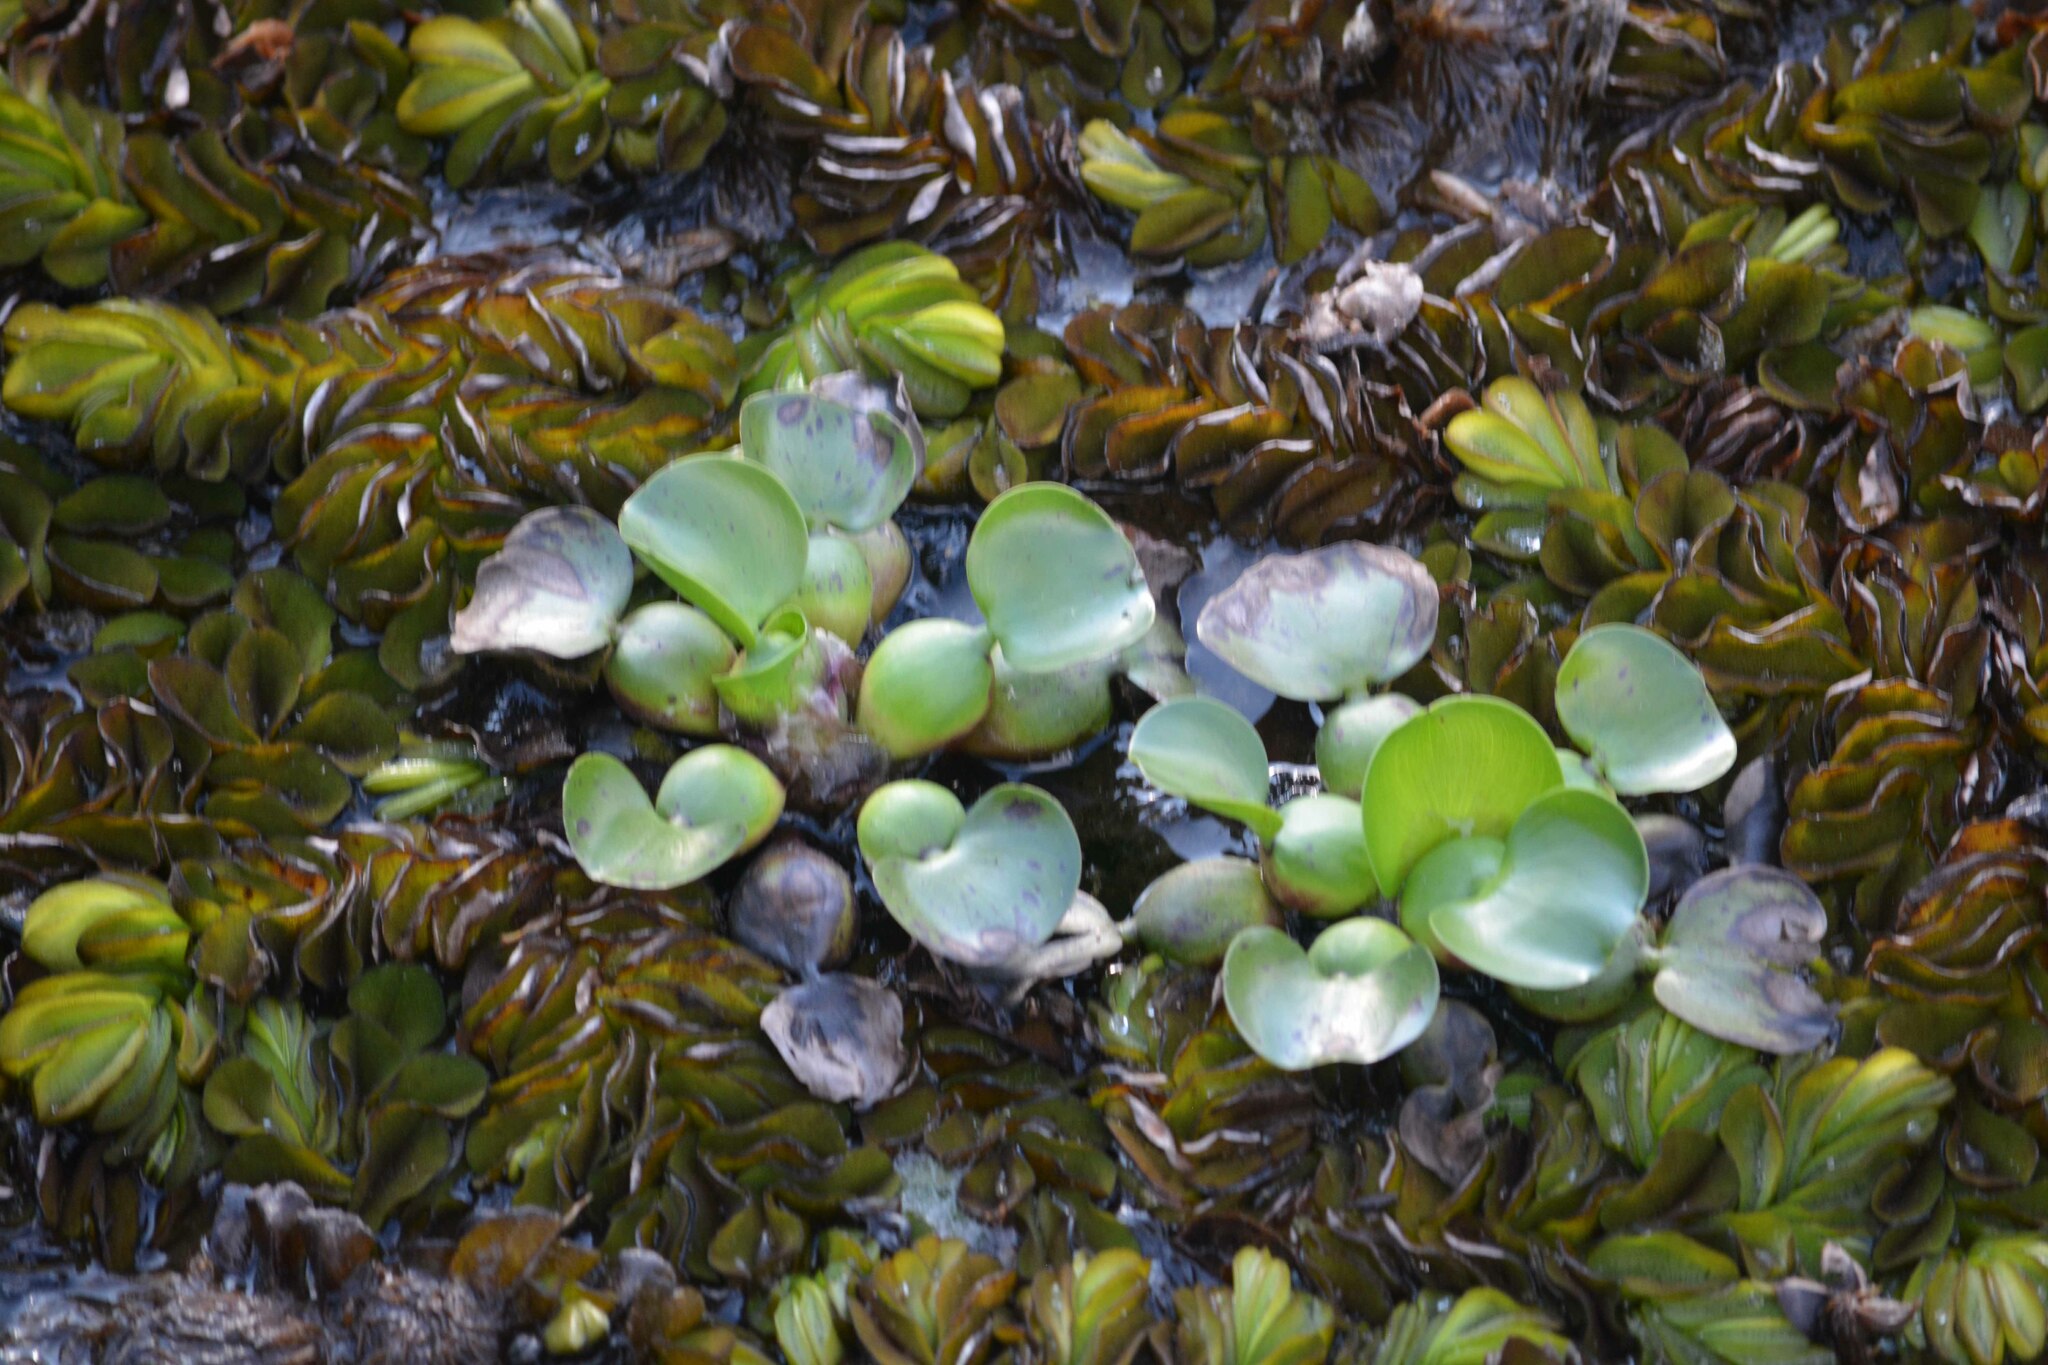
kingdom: Plantae
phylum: Tracheophyta
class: Liliopsida
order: Commelinales
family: Pontederiaceae
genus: Pontederia
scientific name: Pontederia crassipes
